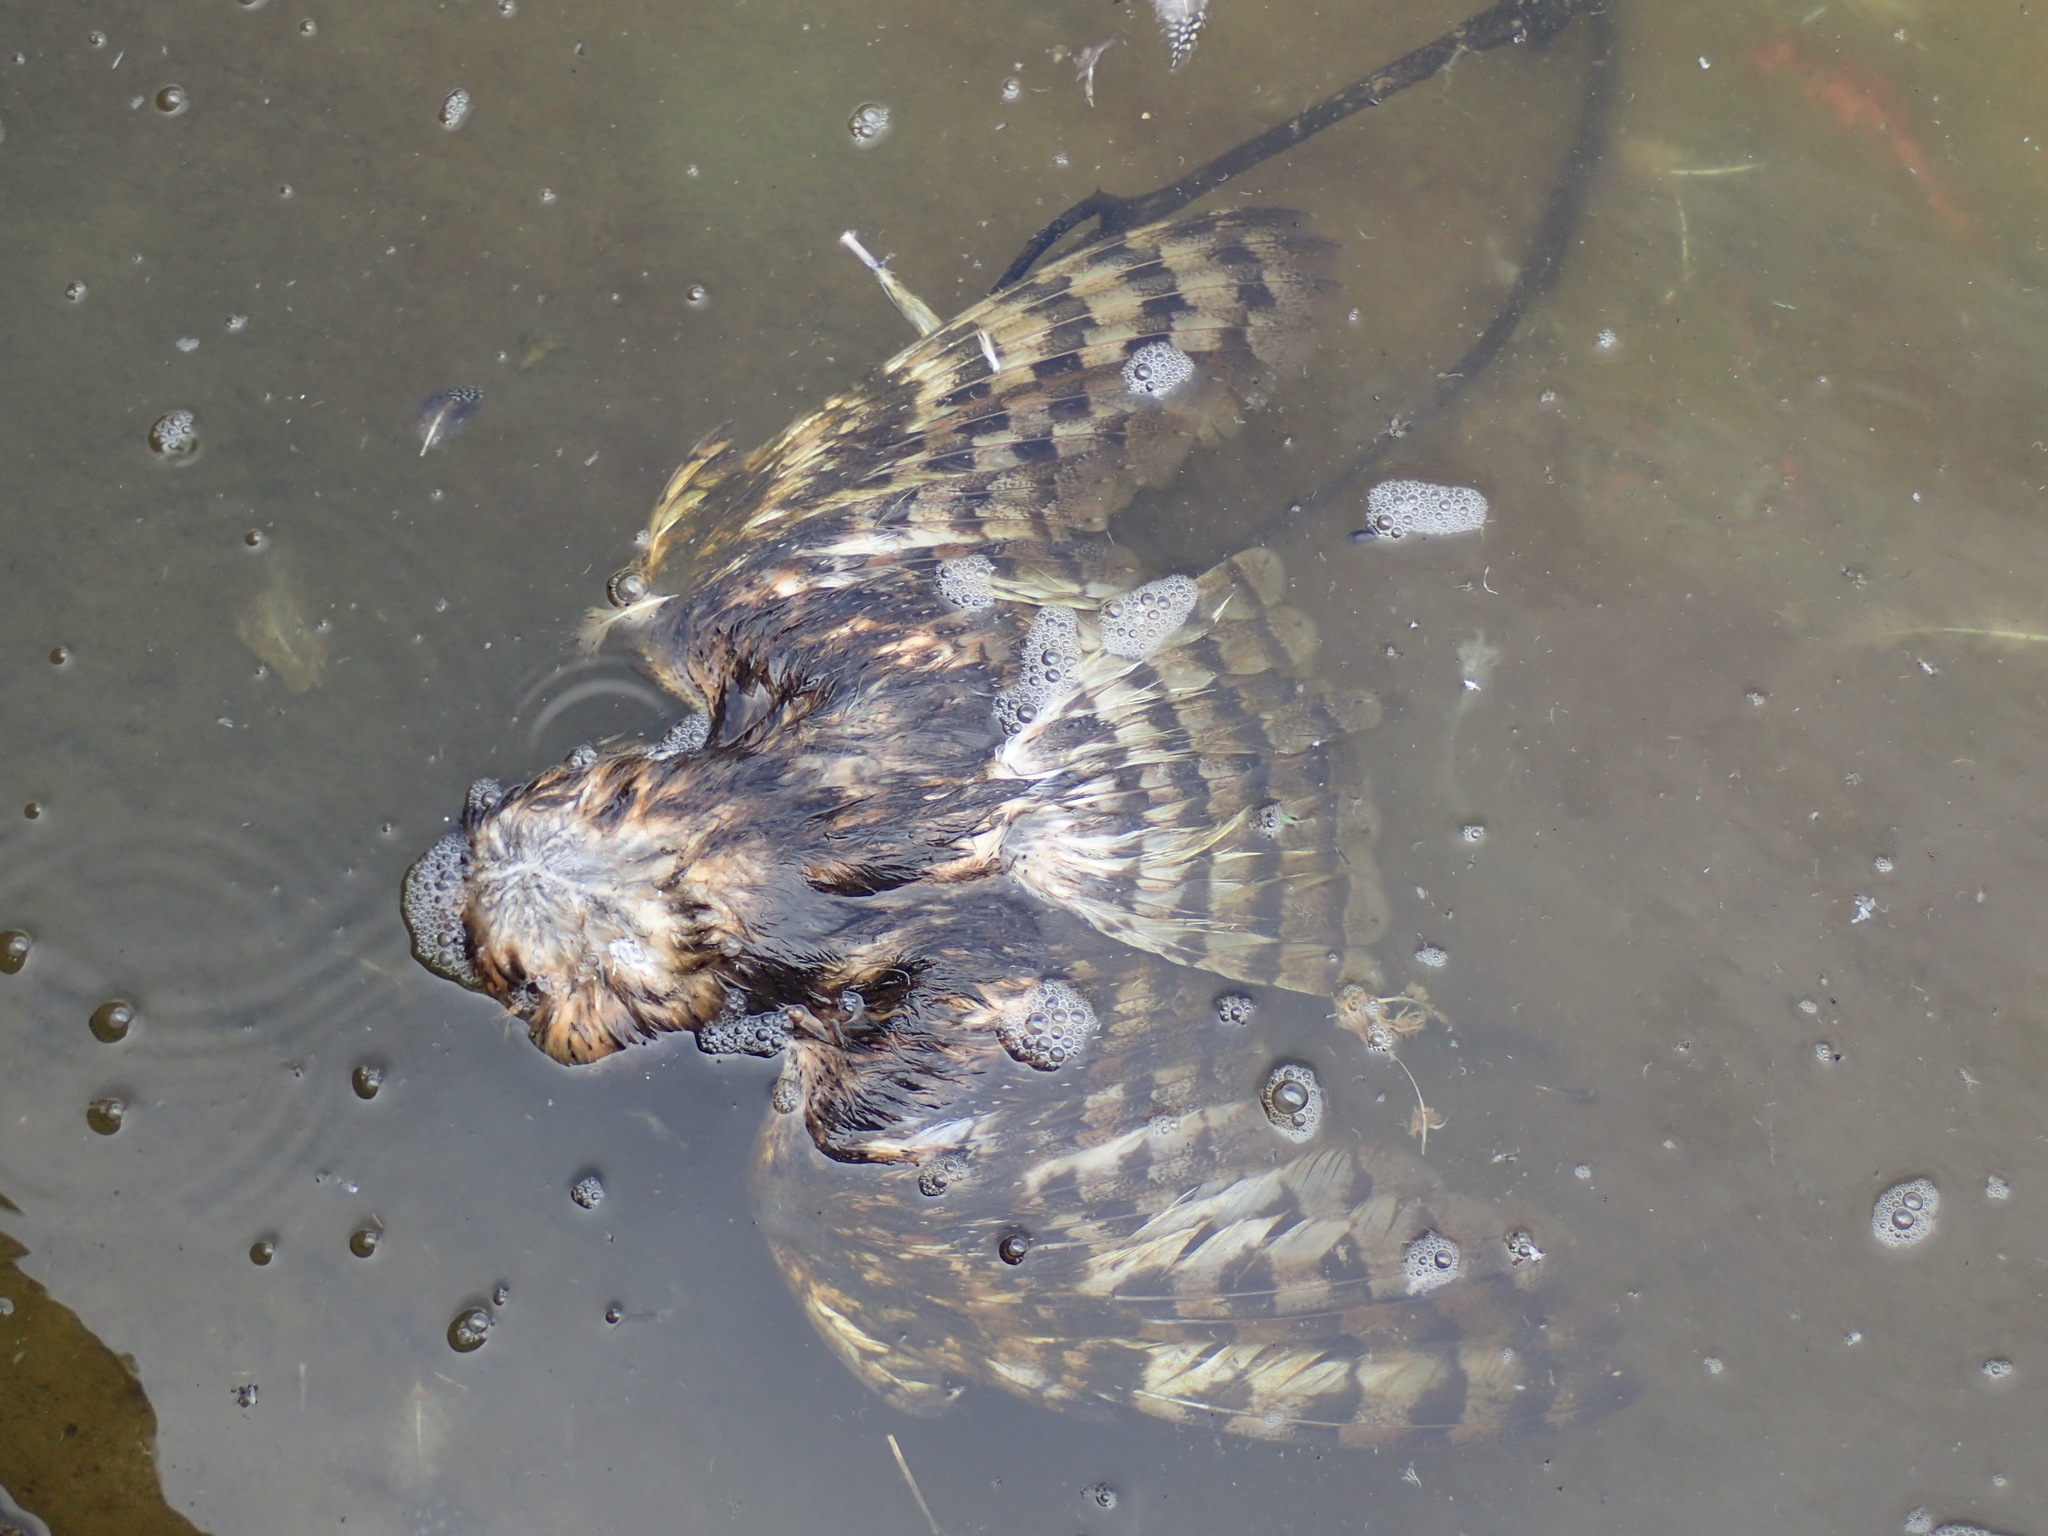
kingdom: Animalia
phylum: Chordata
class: Aves
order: Strigiformes
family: Tytonidae
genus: Tyto
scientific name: Tyto alba
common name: Barn owl
